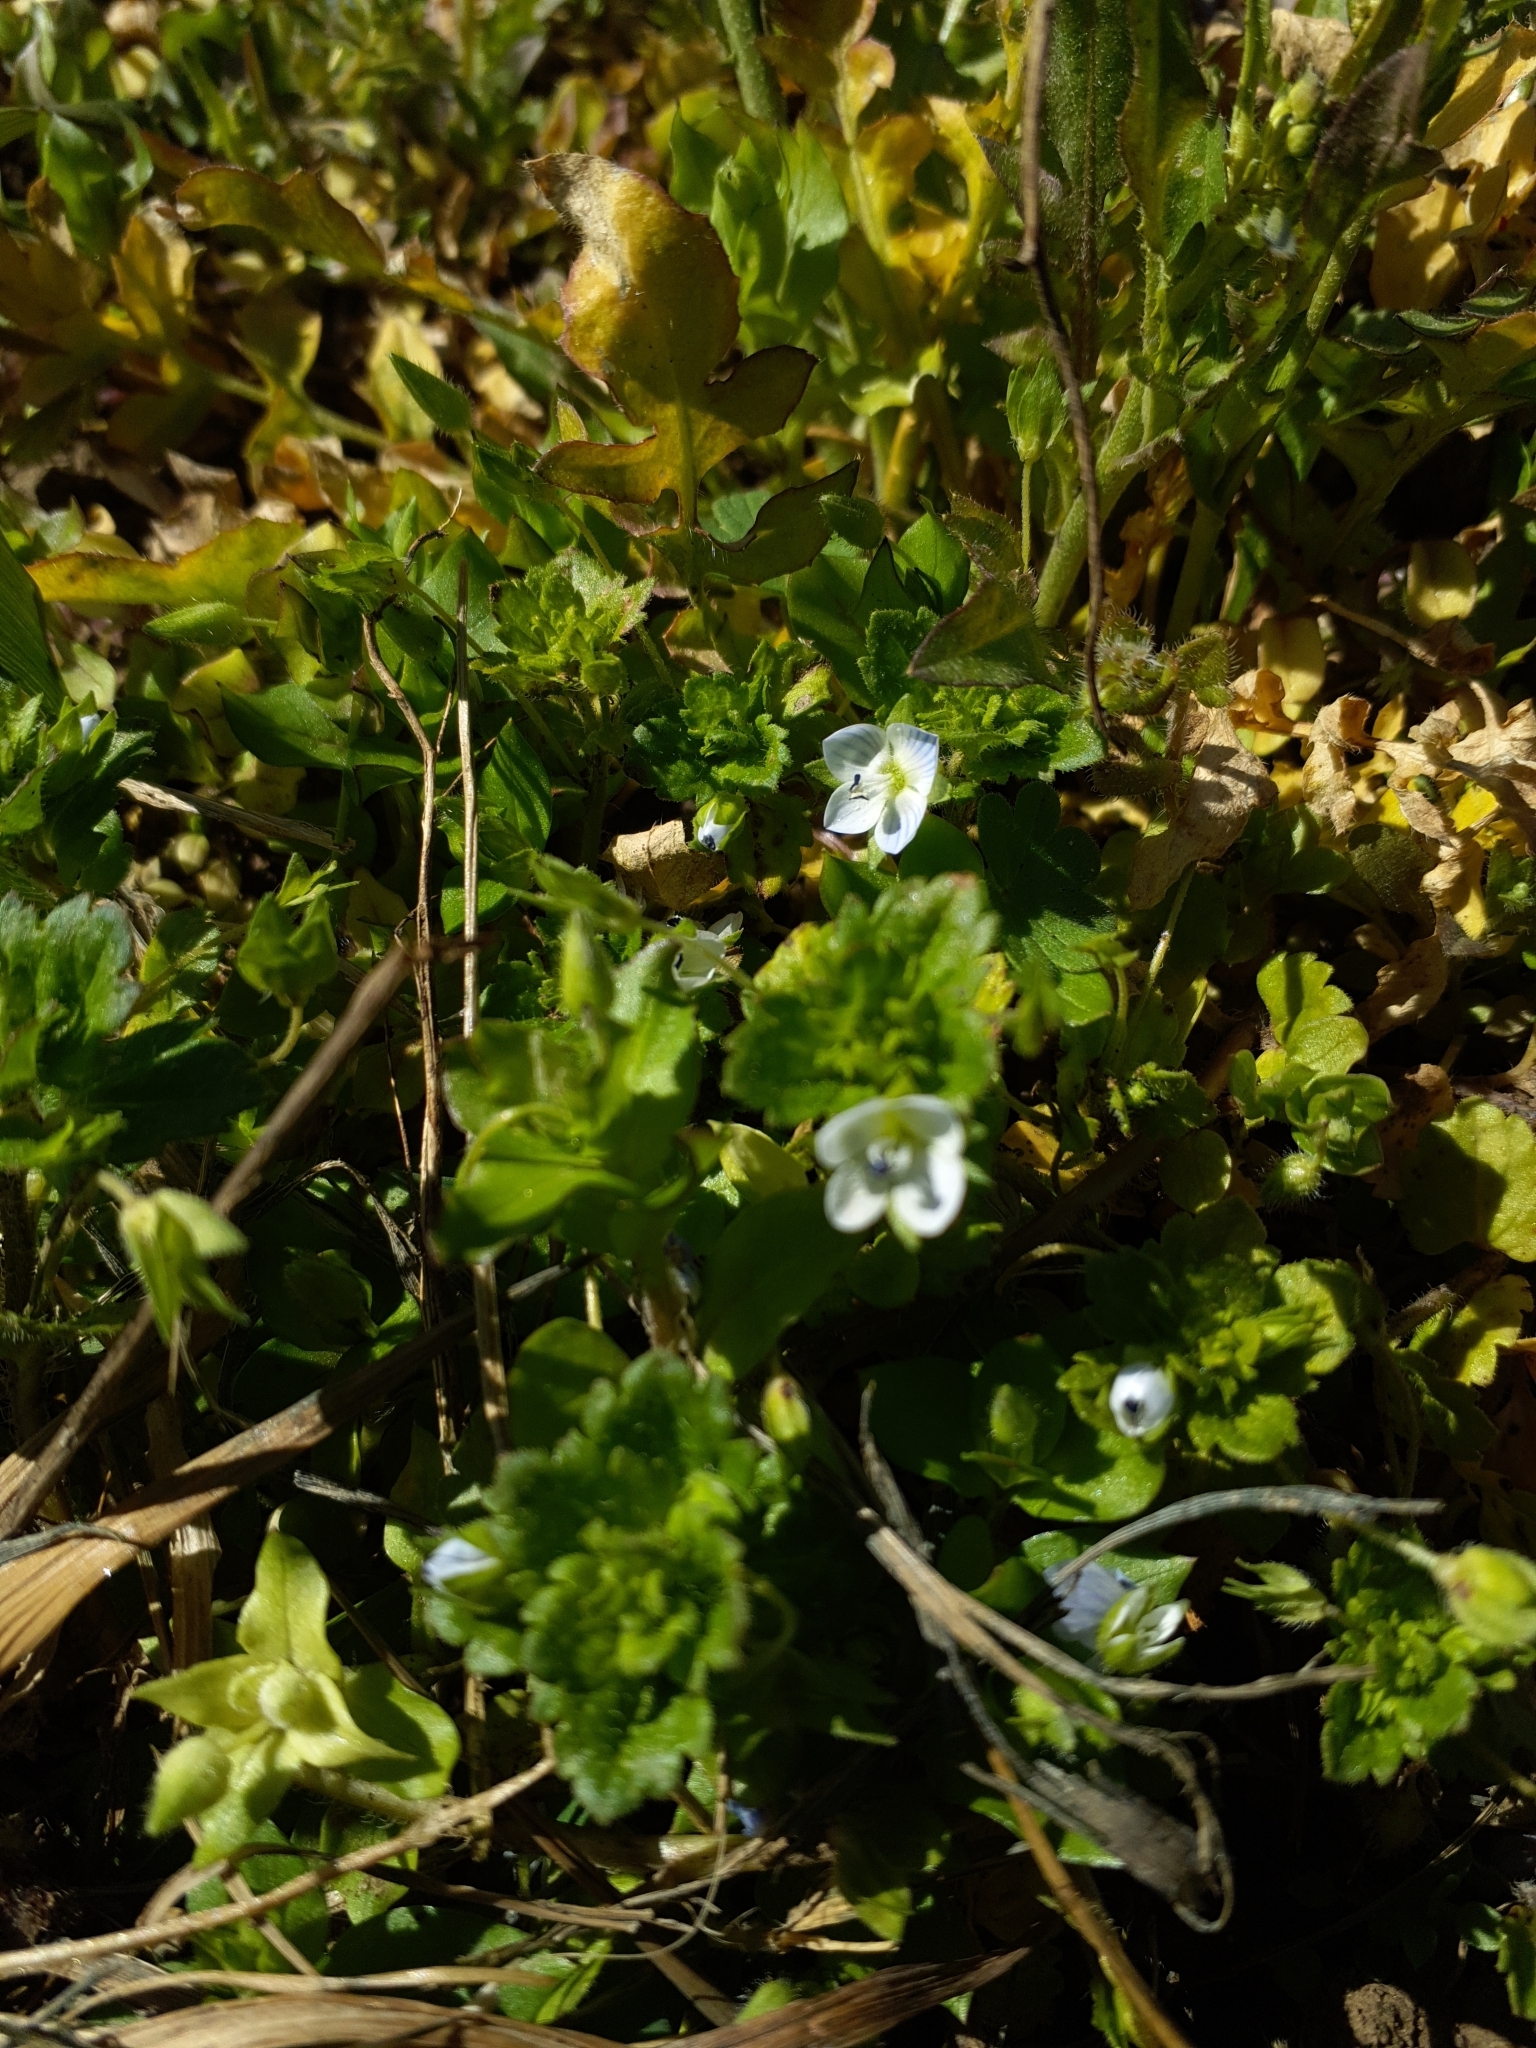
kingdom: Plantae
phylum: Tracheophyta
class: Magnoliopsida
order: Lamiales
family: Plantaginaceae
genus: Veronica
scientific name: Veronica persica
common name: Common field-speedwell
